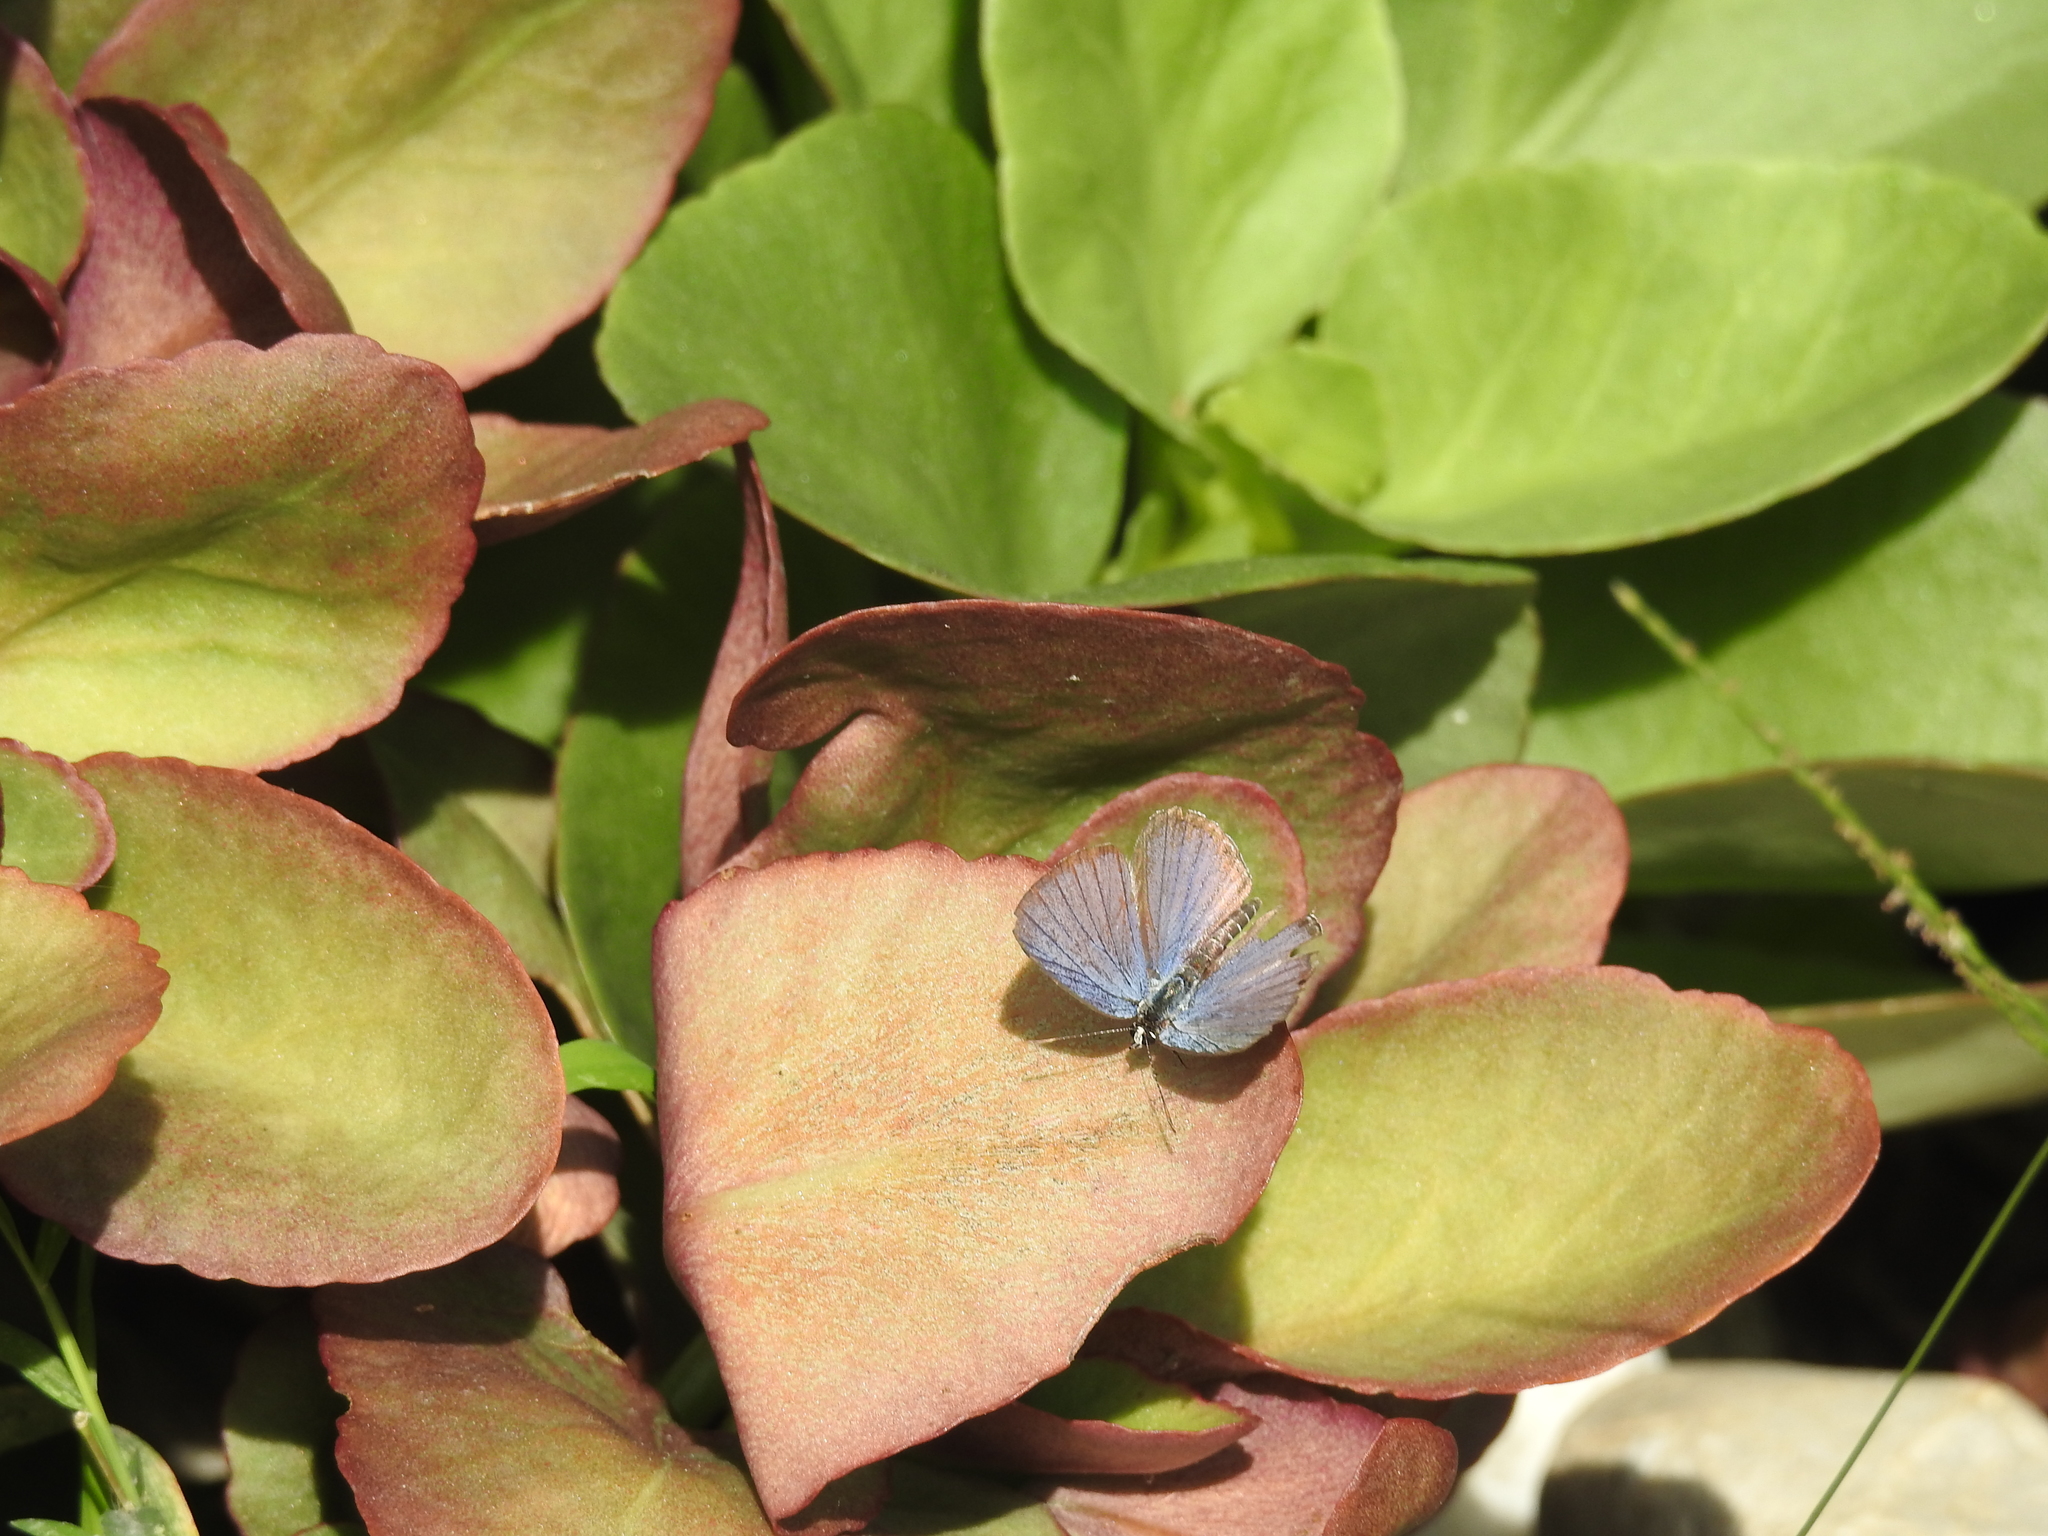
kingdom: Animalia
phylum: Arthropoda
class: Insecta
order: Lepidoptera
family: Lycaenidae
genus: Chilades
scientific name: Chilades laius
